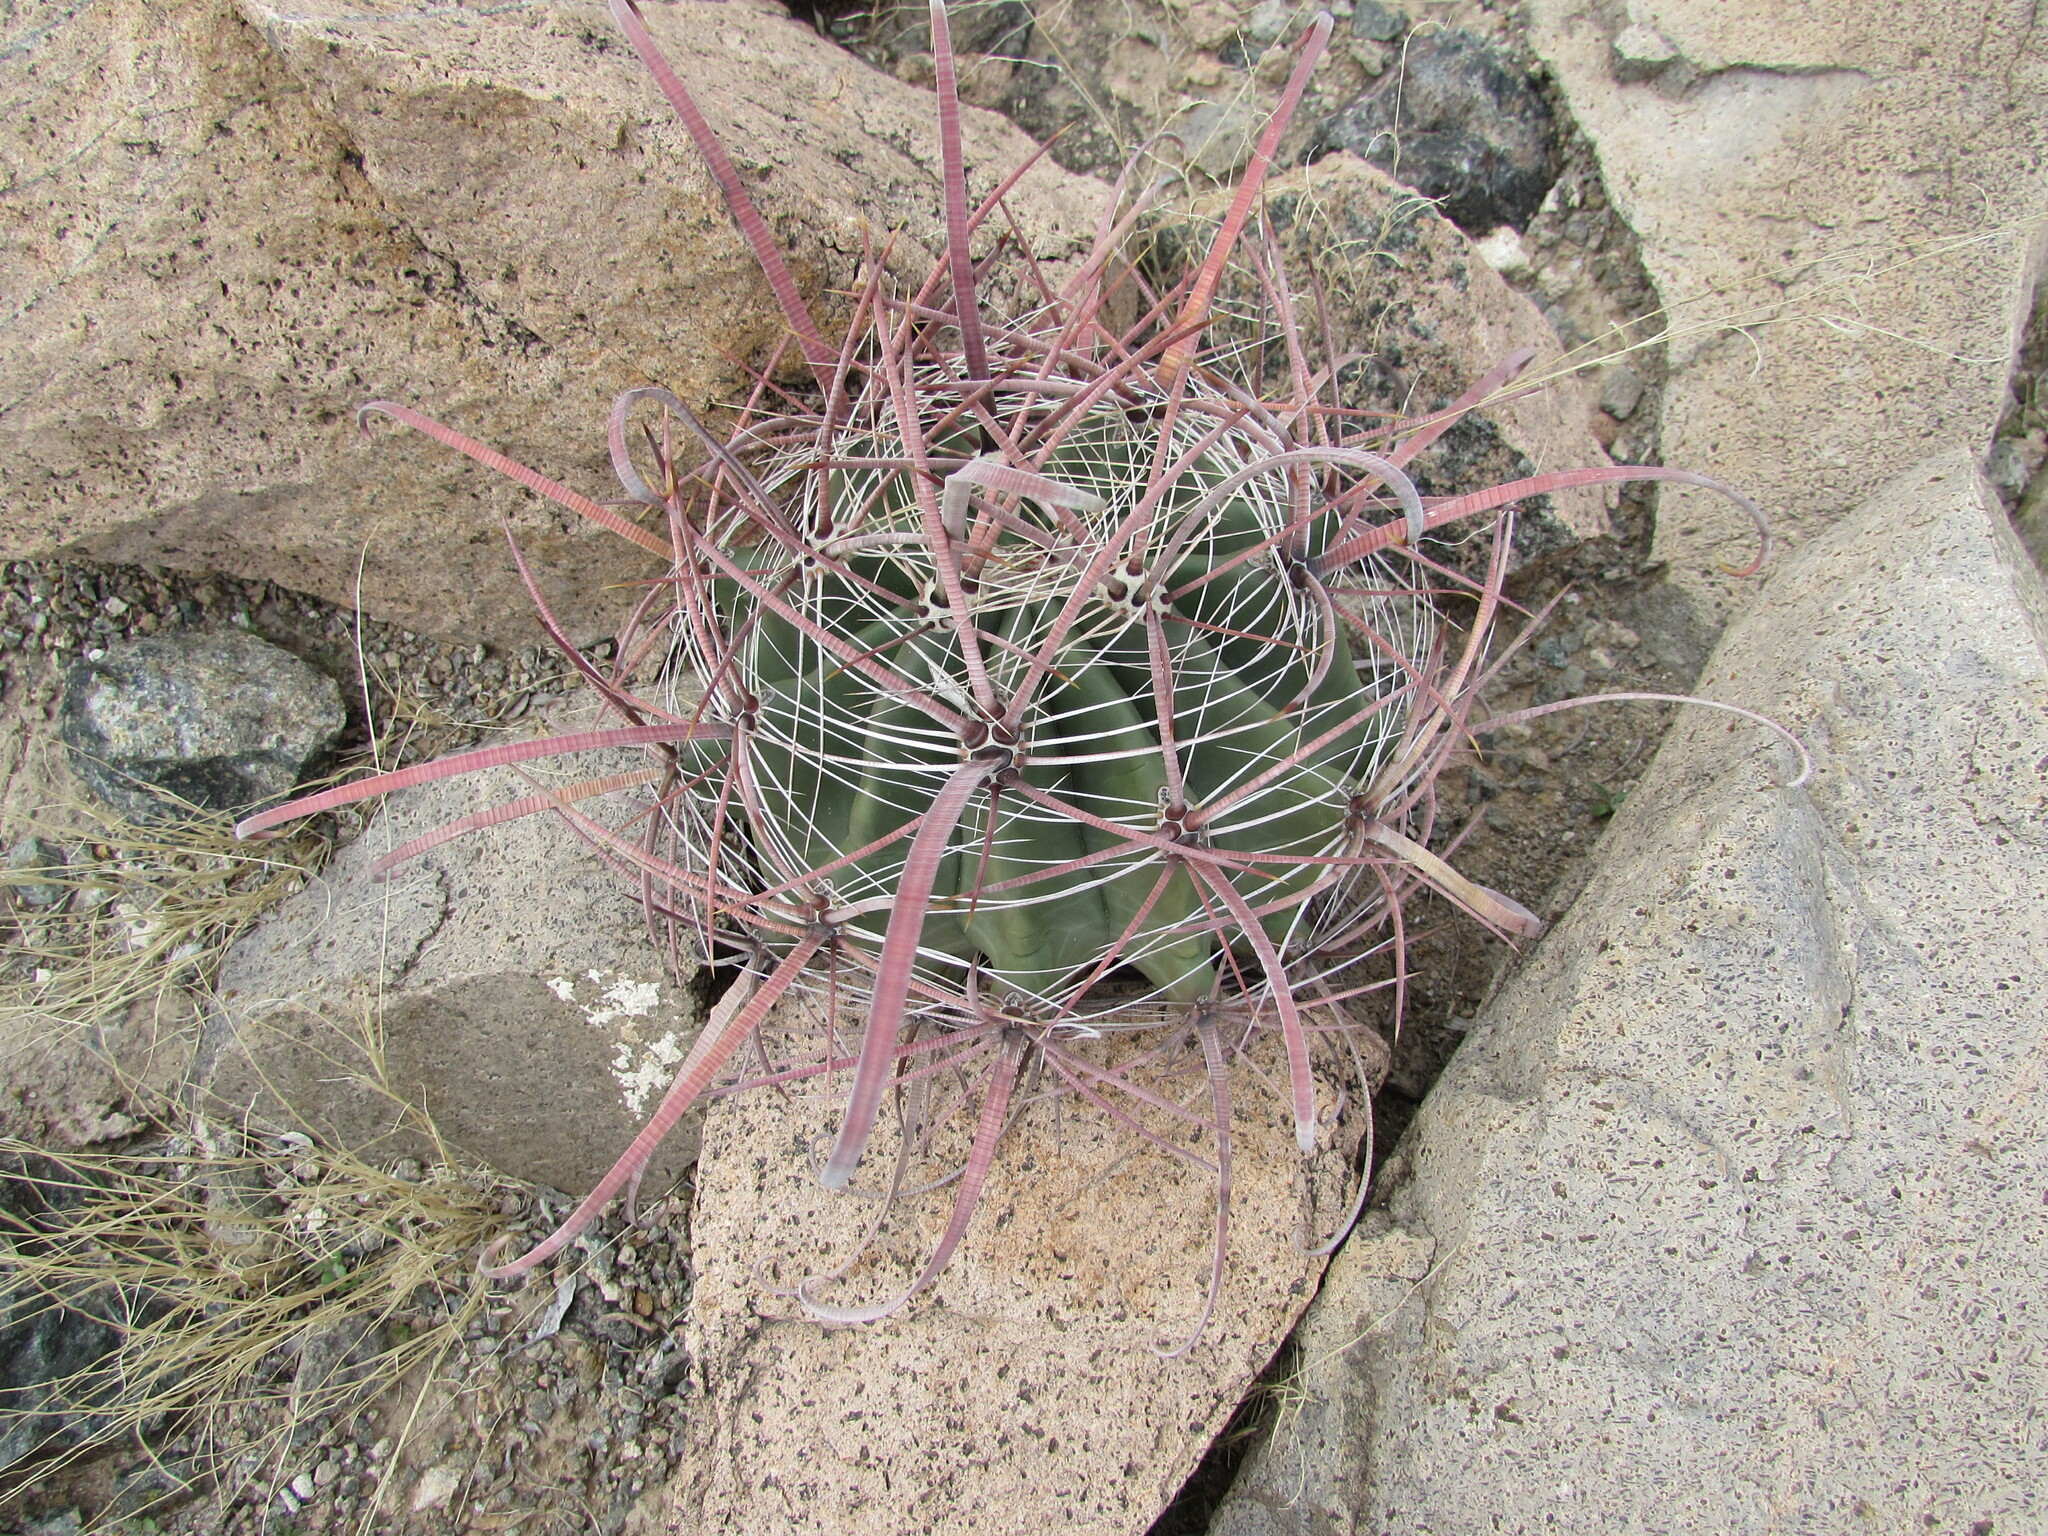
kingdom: Plantae
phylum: Tracheophyta
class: Magnoliopsida
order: Caryophyllales
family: Cactaceae
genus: Ferocactus
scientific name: Ferocactus wislizeni
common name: Candy barrel cactus
